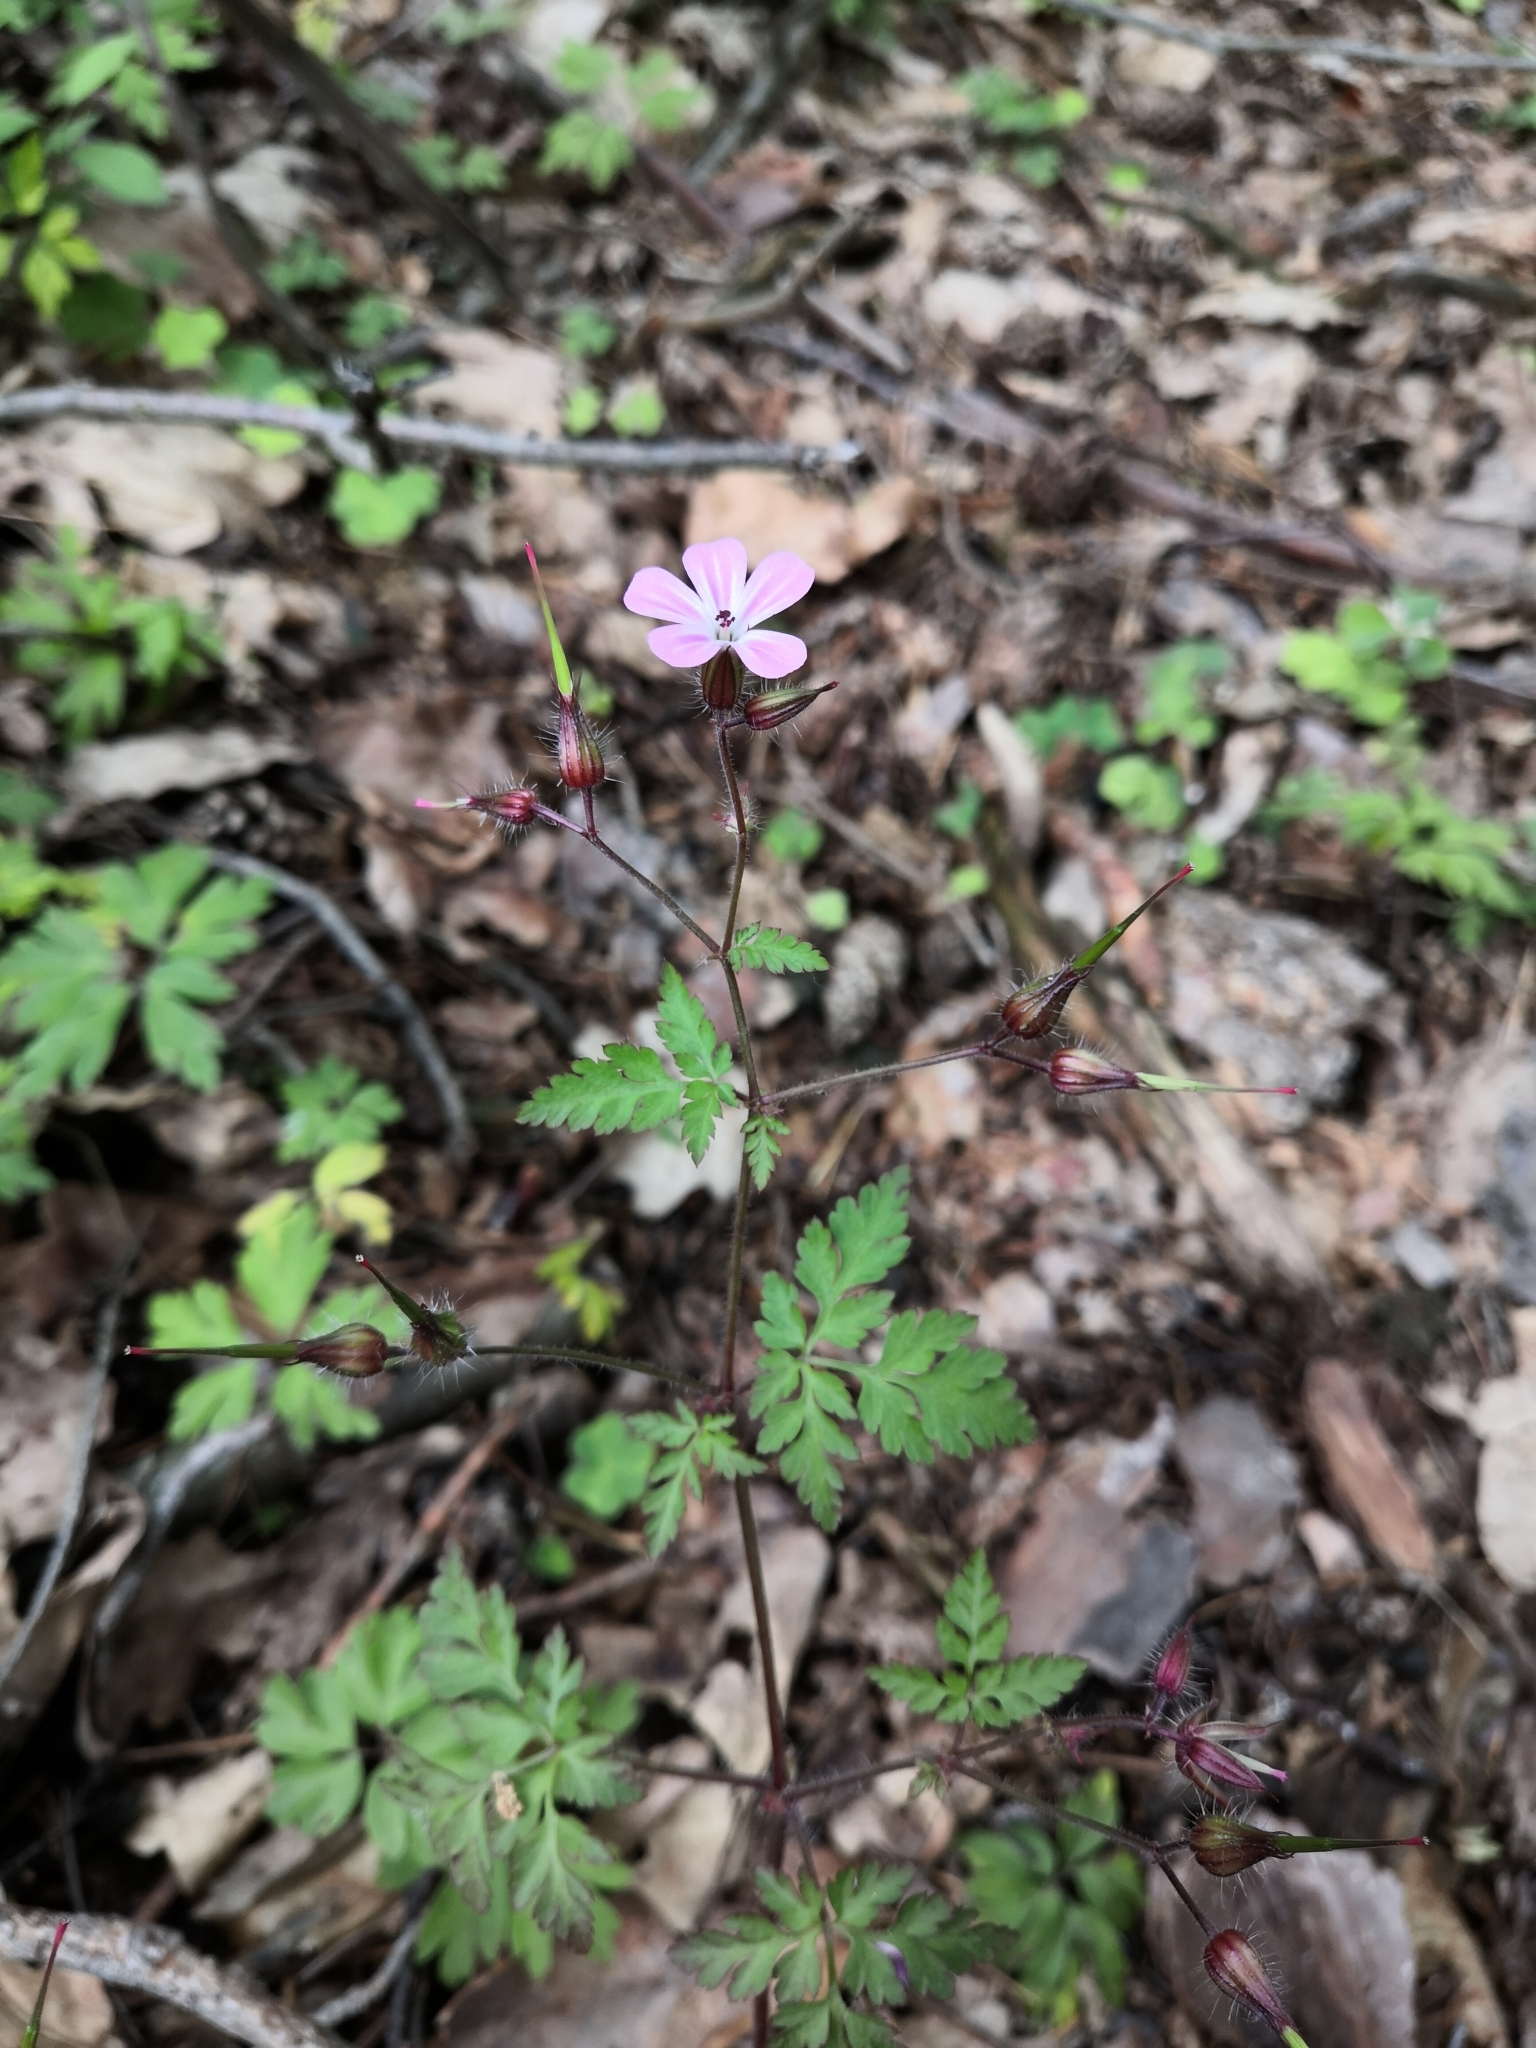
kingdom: Plantae
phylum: Tracheophyta
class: Magnoliopsida
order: Geraniales
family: Geraniaceae
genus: Geranium
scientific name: Geranium robertianum
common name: Herb-robert
